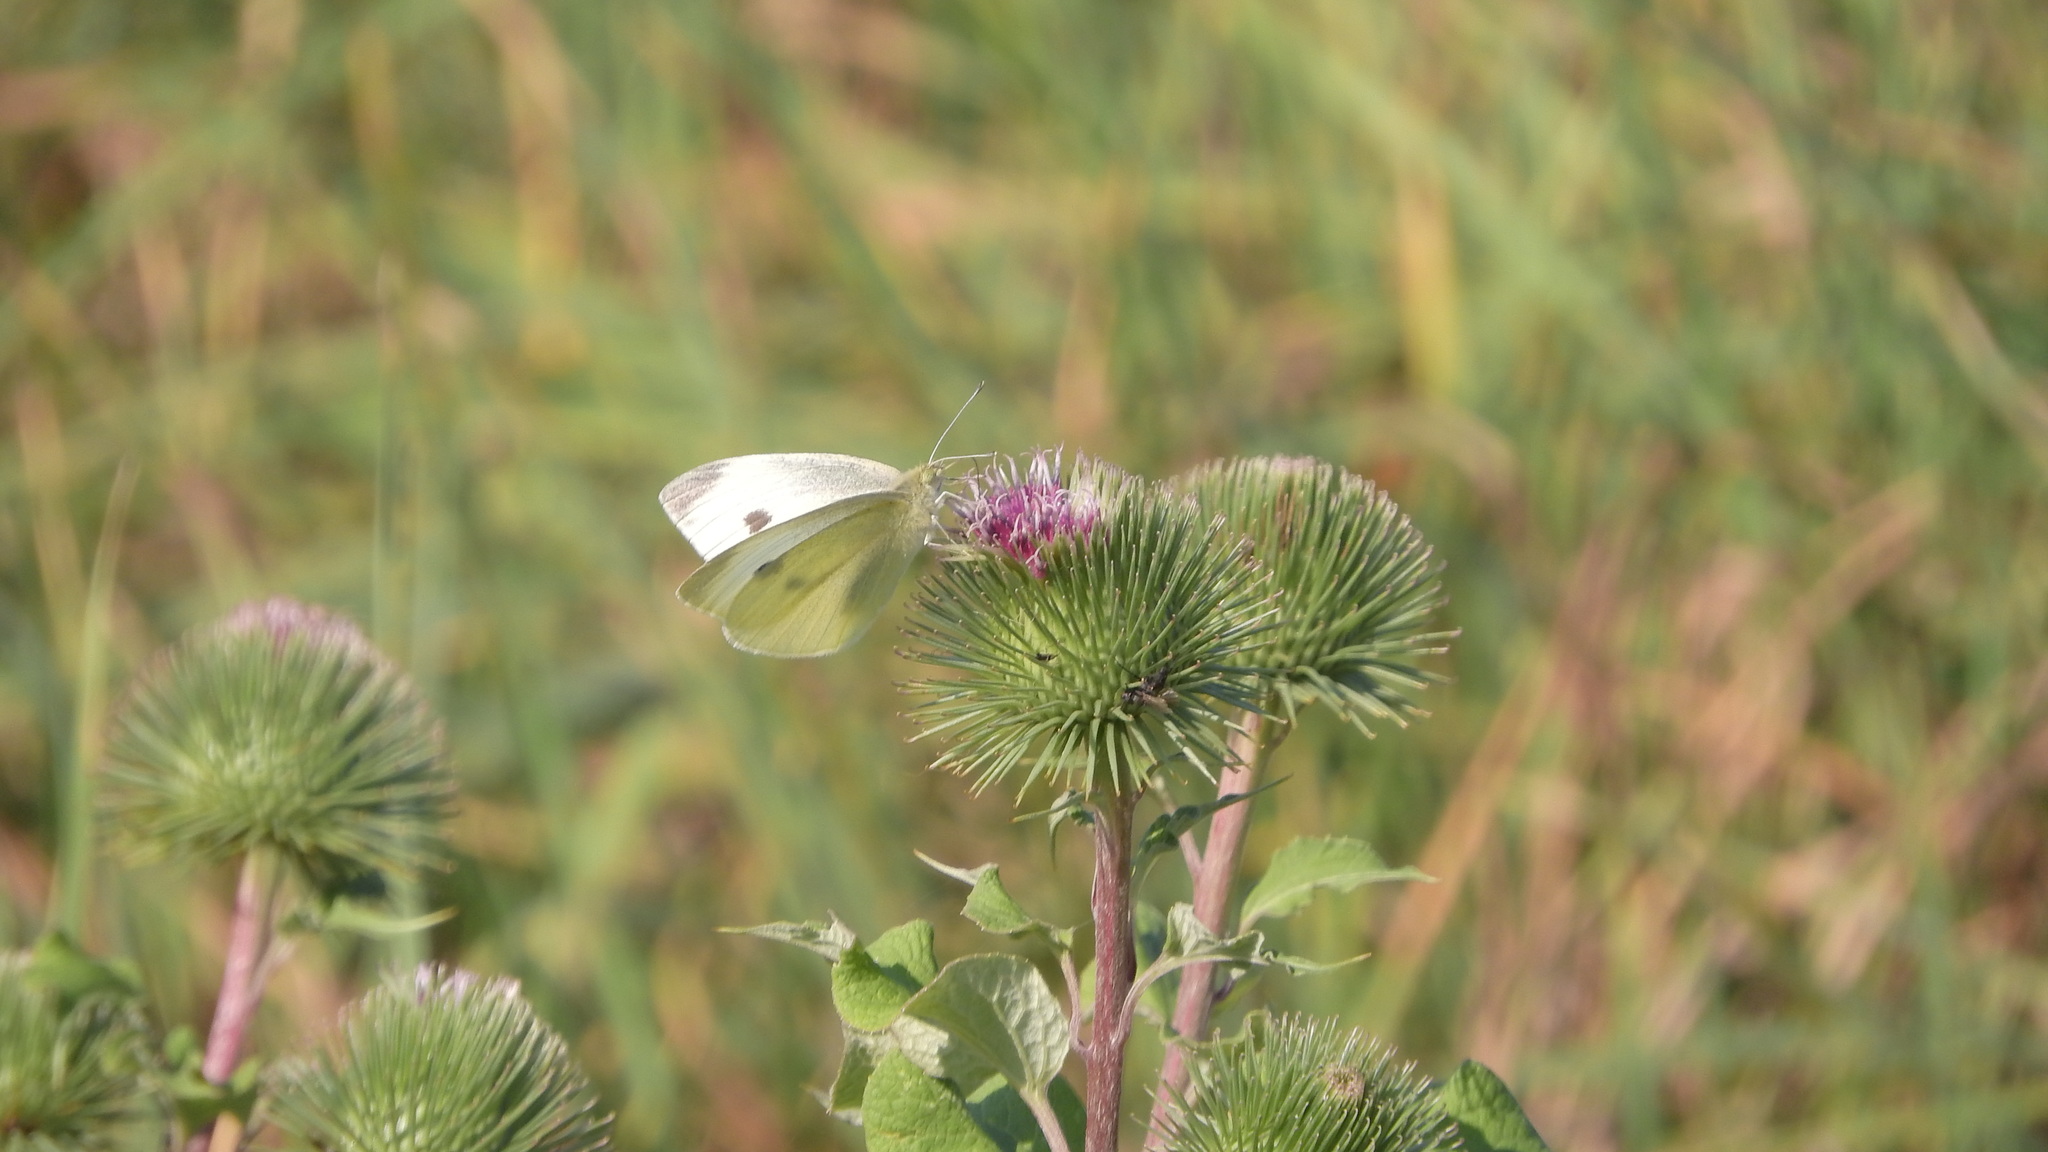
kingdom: Animalia
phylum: Arthropoda
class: Insecta
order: Lepidoptera
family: Pieridae
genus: Pieris
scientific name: Pieris rapae
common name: Small white
